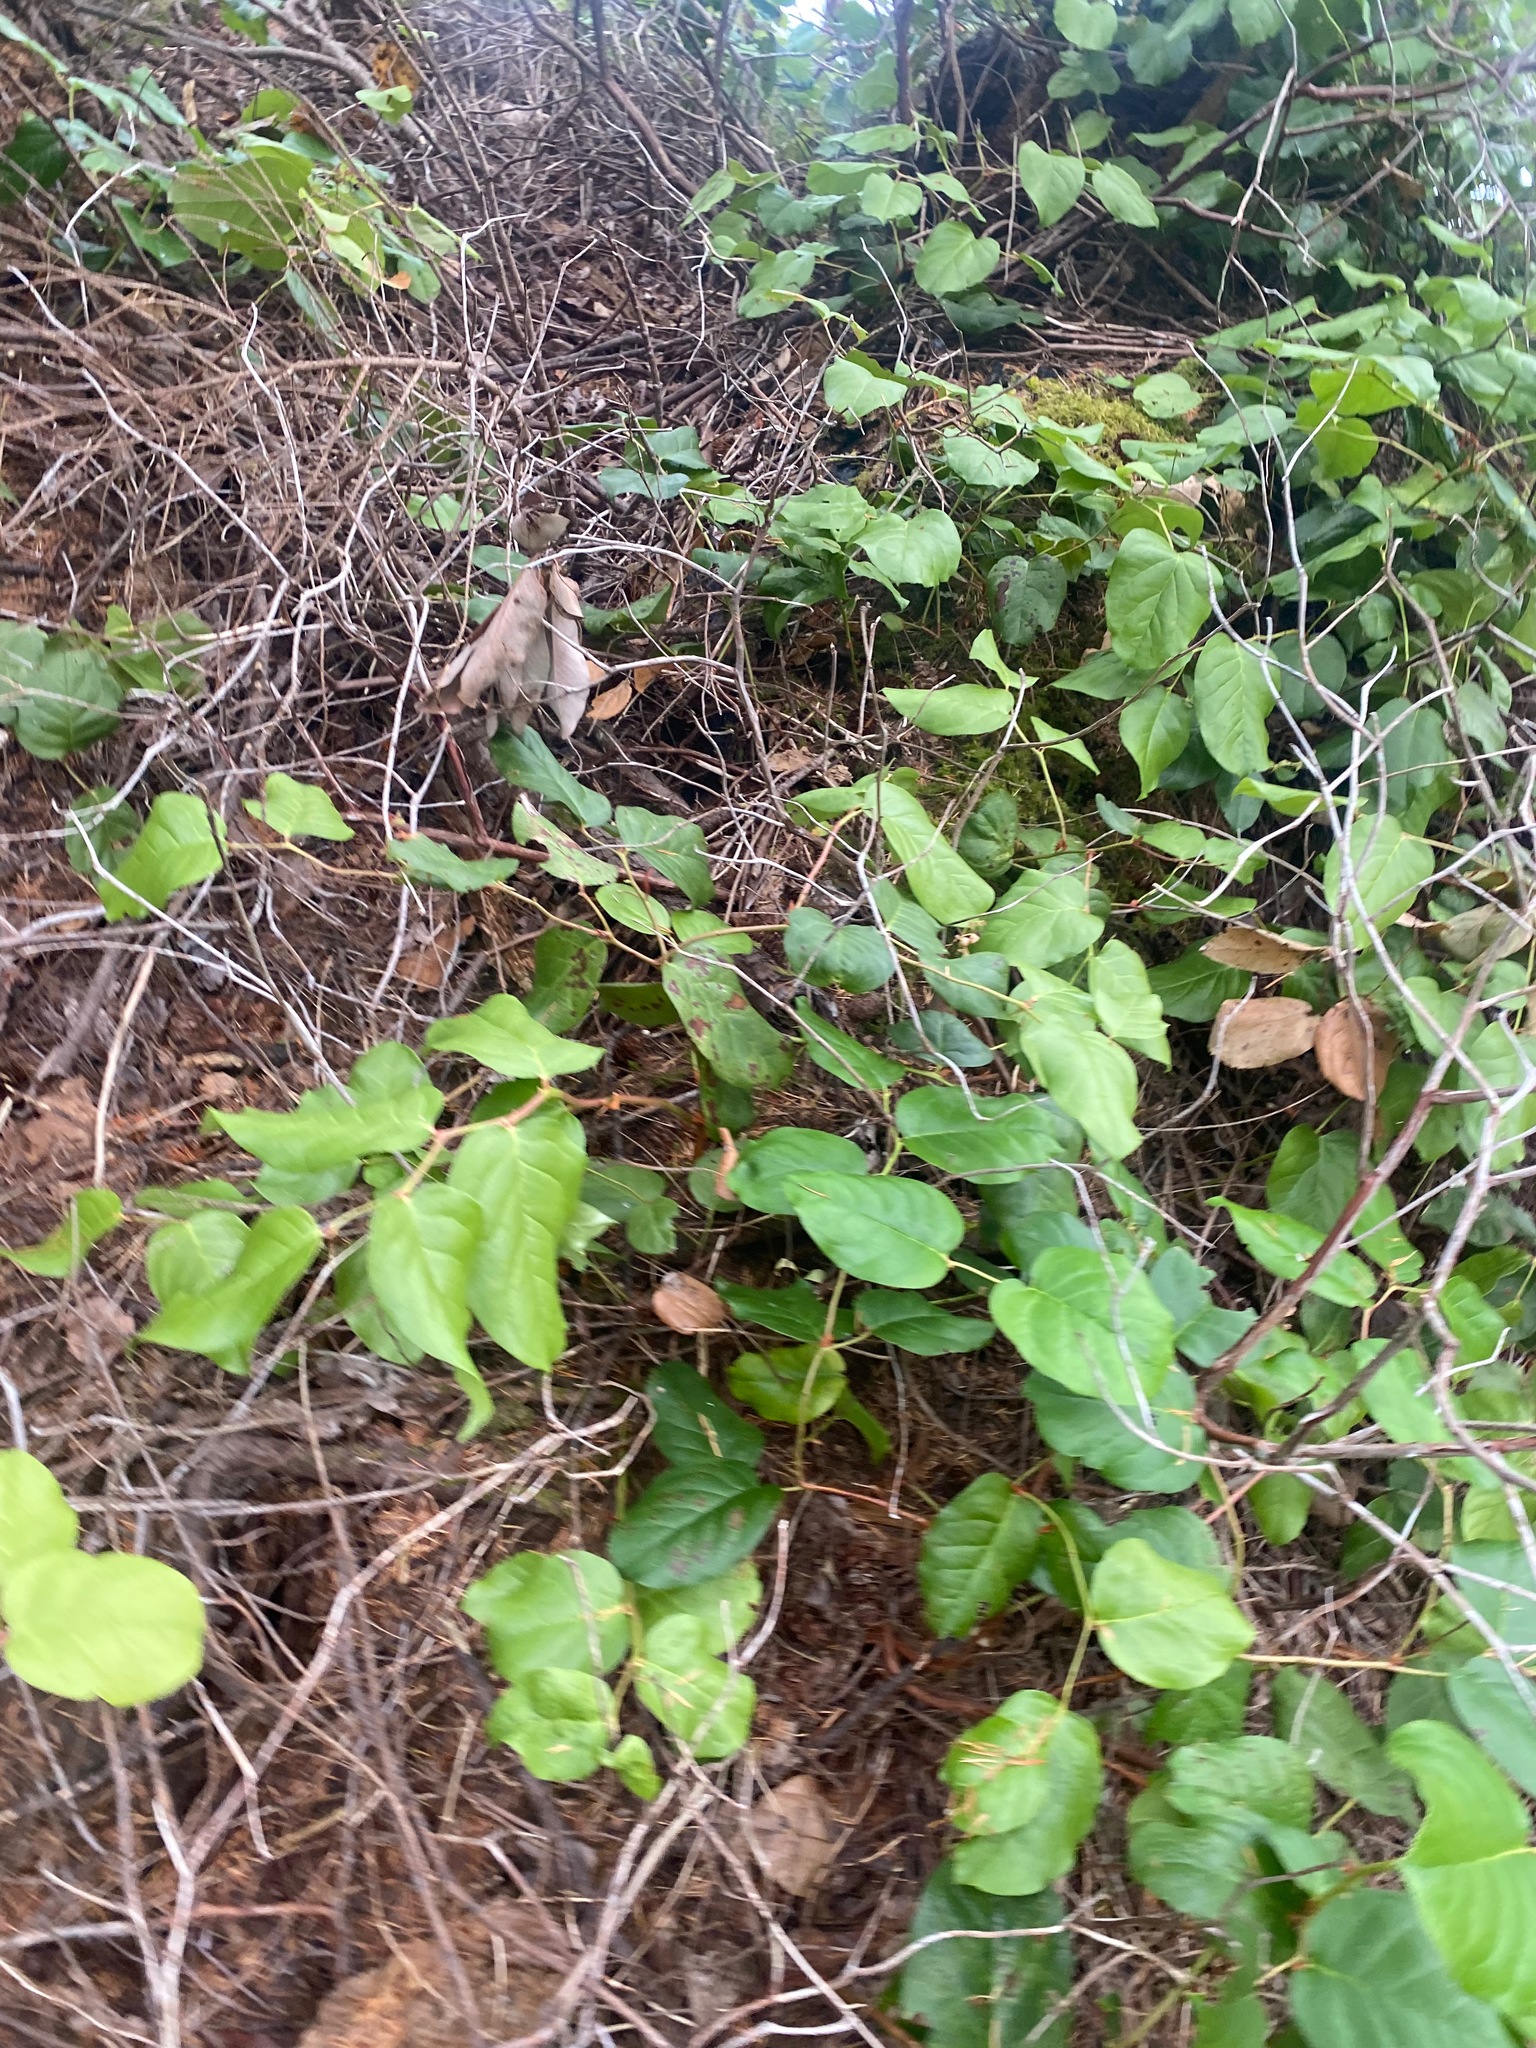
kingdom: Plantae
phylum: Tracheophyta
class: Magnoliopsida
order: Ericales
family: Ericaceae
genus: Gaultheria
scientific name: Gaultheria shallon
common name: Shallon
